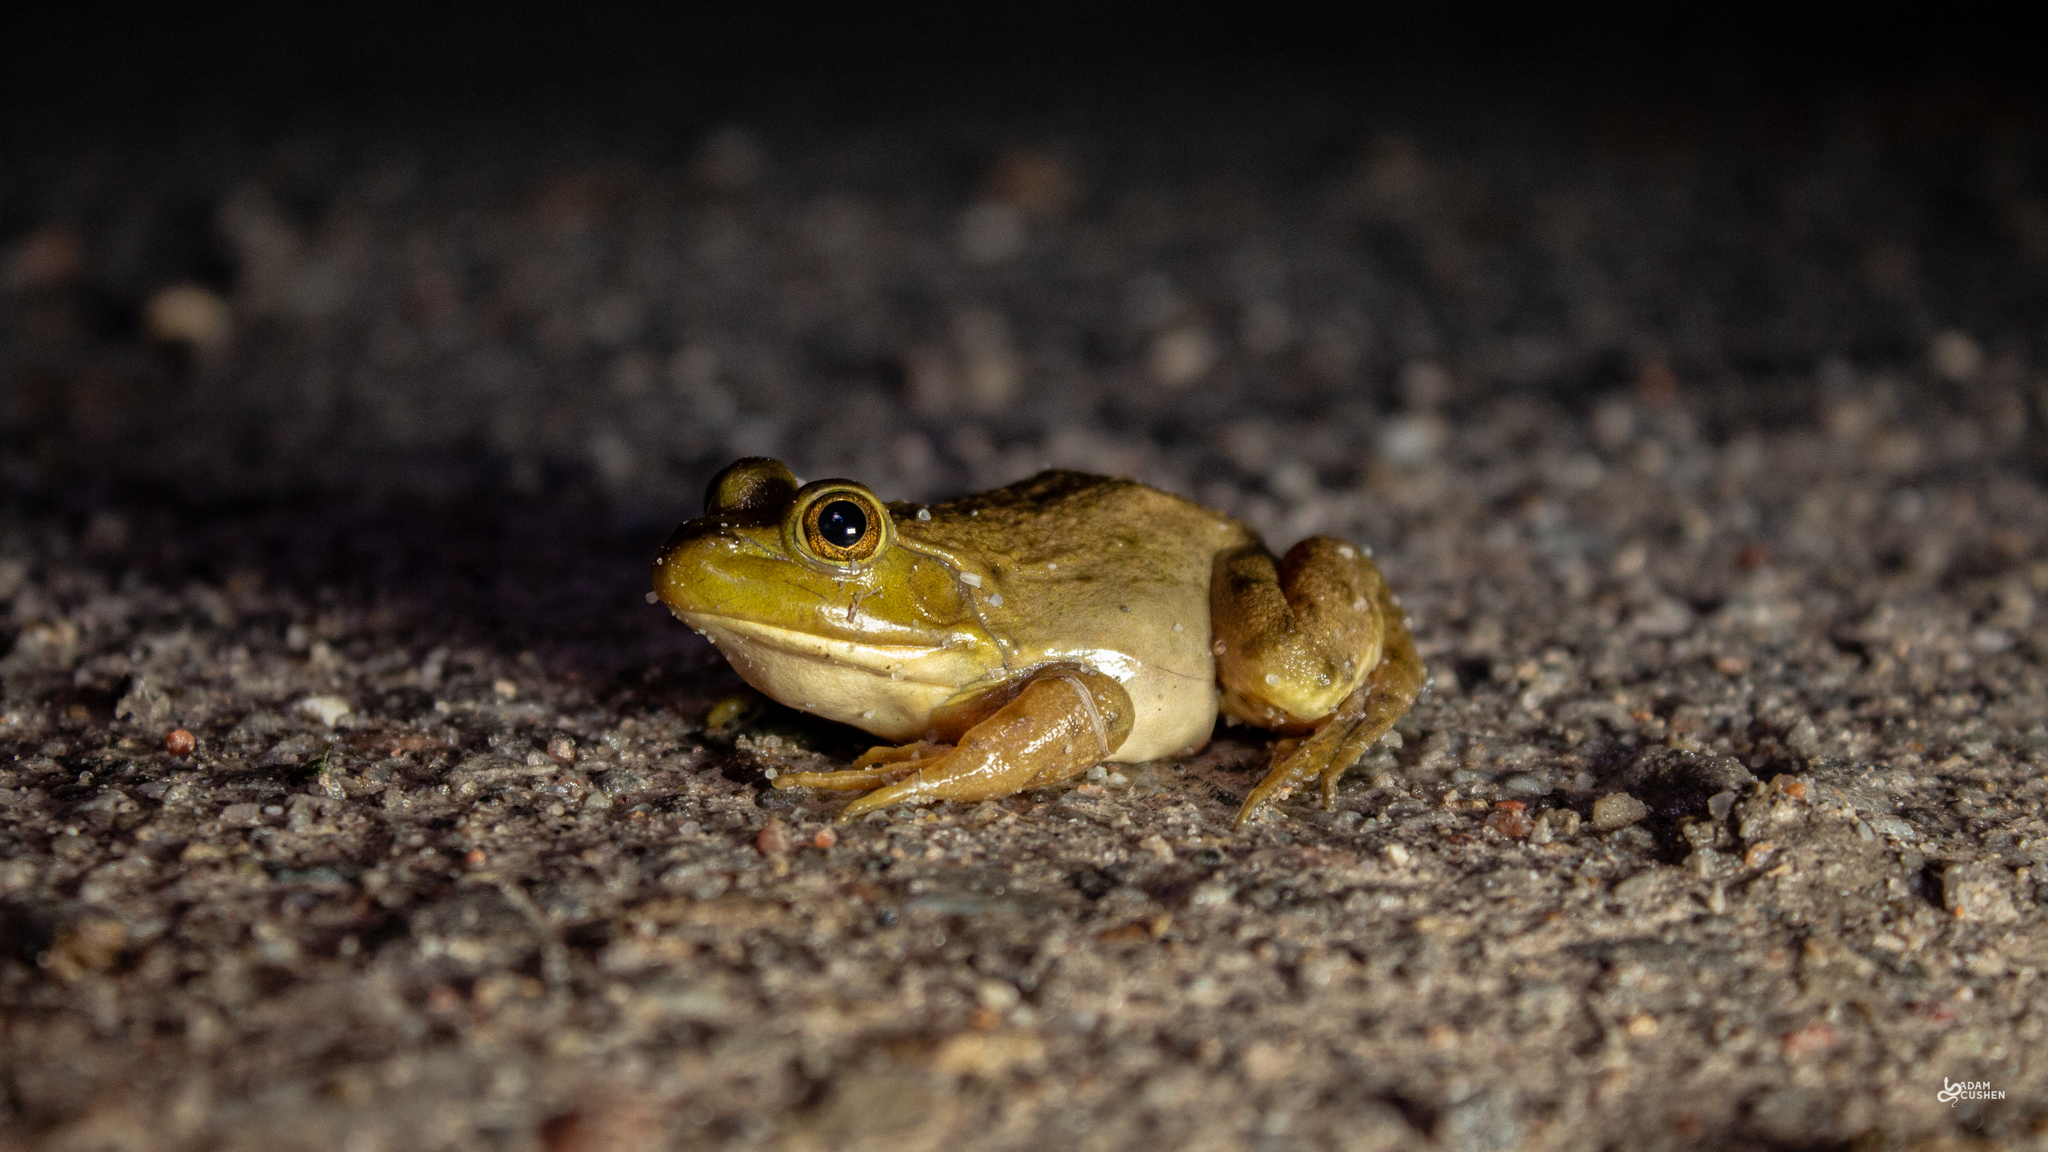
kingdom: Animalia
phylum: Chordata
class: Amphibia
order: Anura
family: Ranidae
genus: Lithobates
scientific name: Lithobates catesbeianus
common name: American bullfrog
